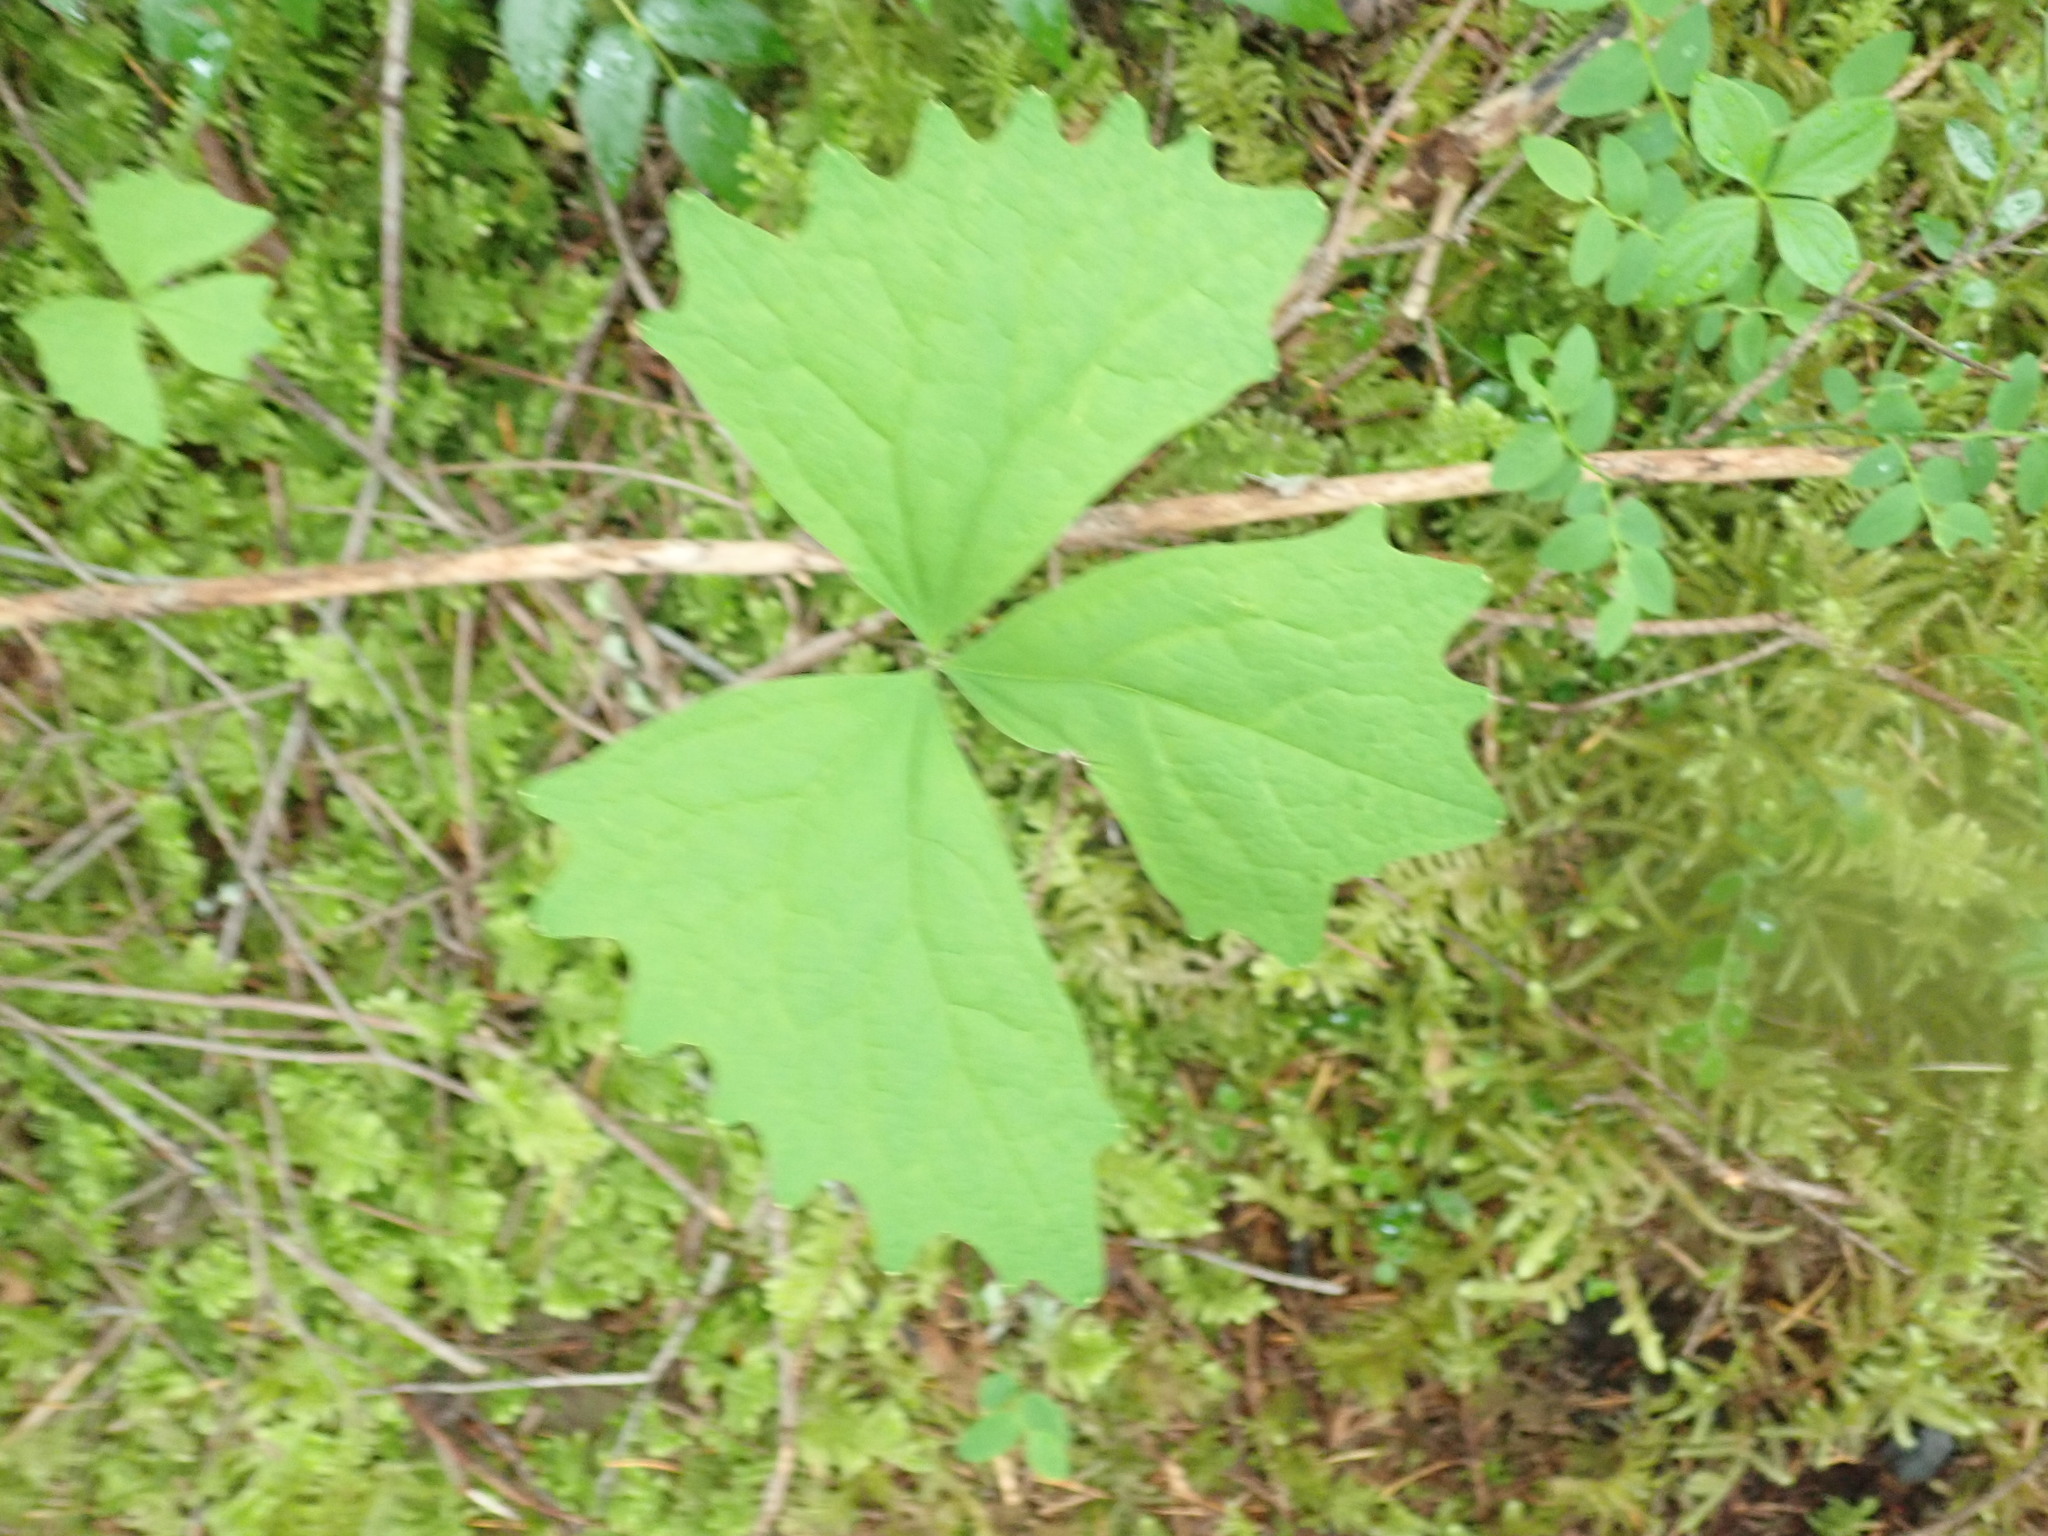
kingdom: Plantae
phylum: Tracheophyta
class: Magnoliopsida
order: Ranunculales
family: Berberidaceae
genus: Achlys
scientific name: Achlys triphylla
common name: Vanilla-leaf
